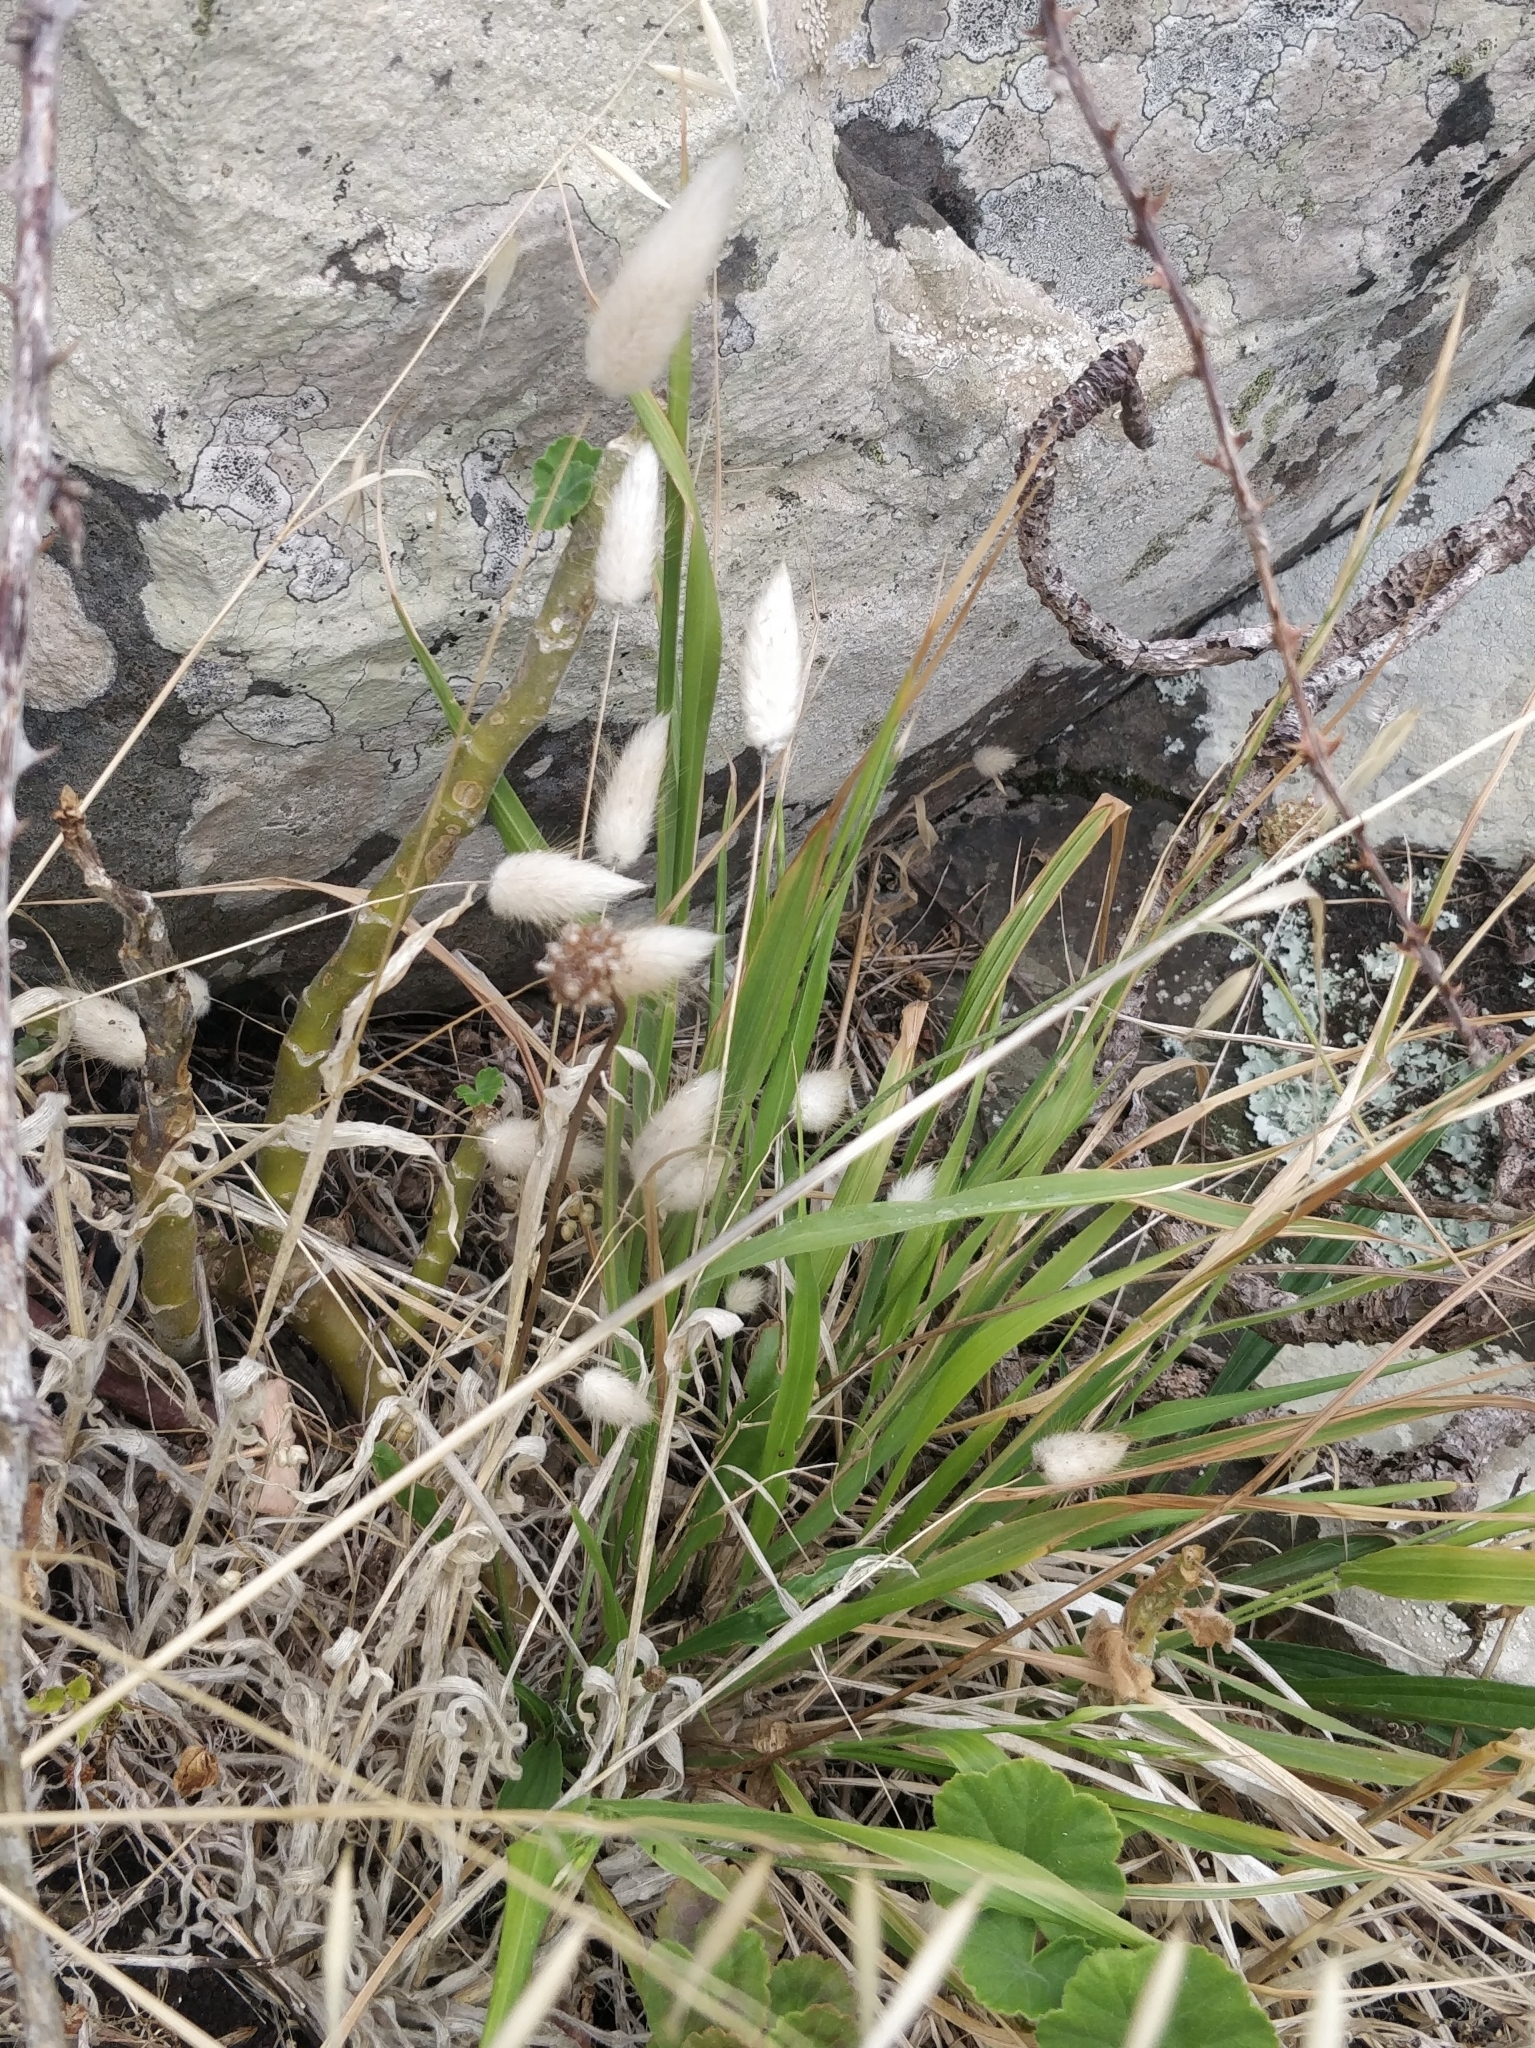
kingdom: Plantae
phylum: Tracheophyta
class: Liliopsida
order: Poales
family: Poaceae
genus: Lagurus
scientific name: Lagurus ovatus
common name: Hare's-tail
